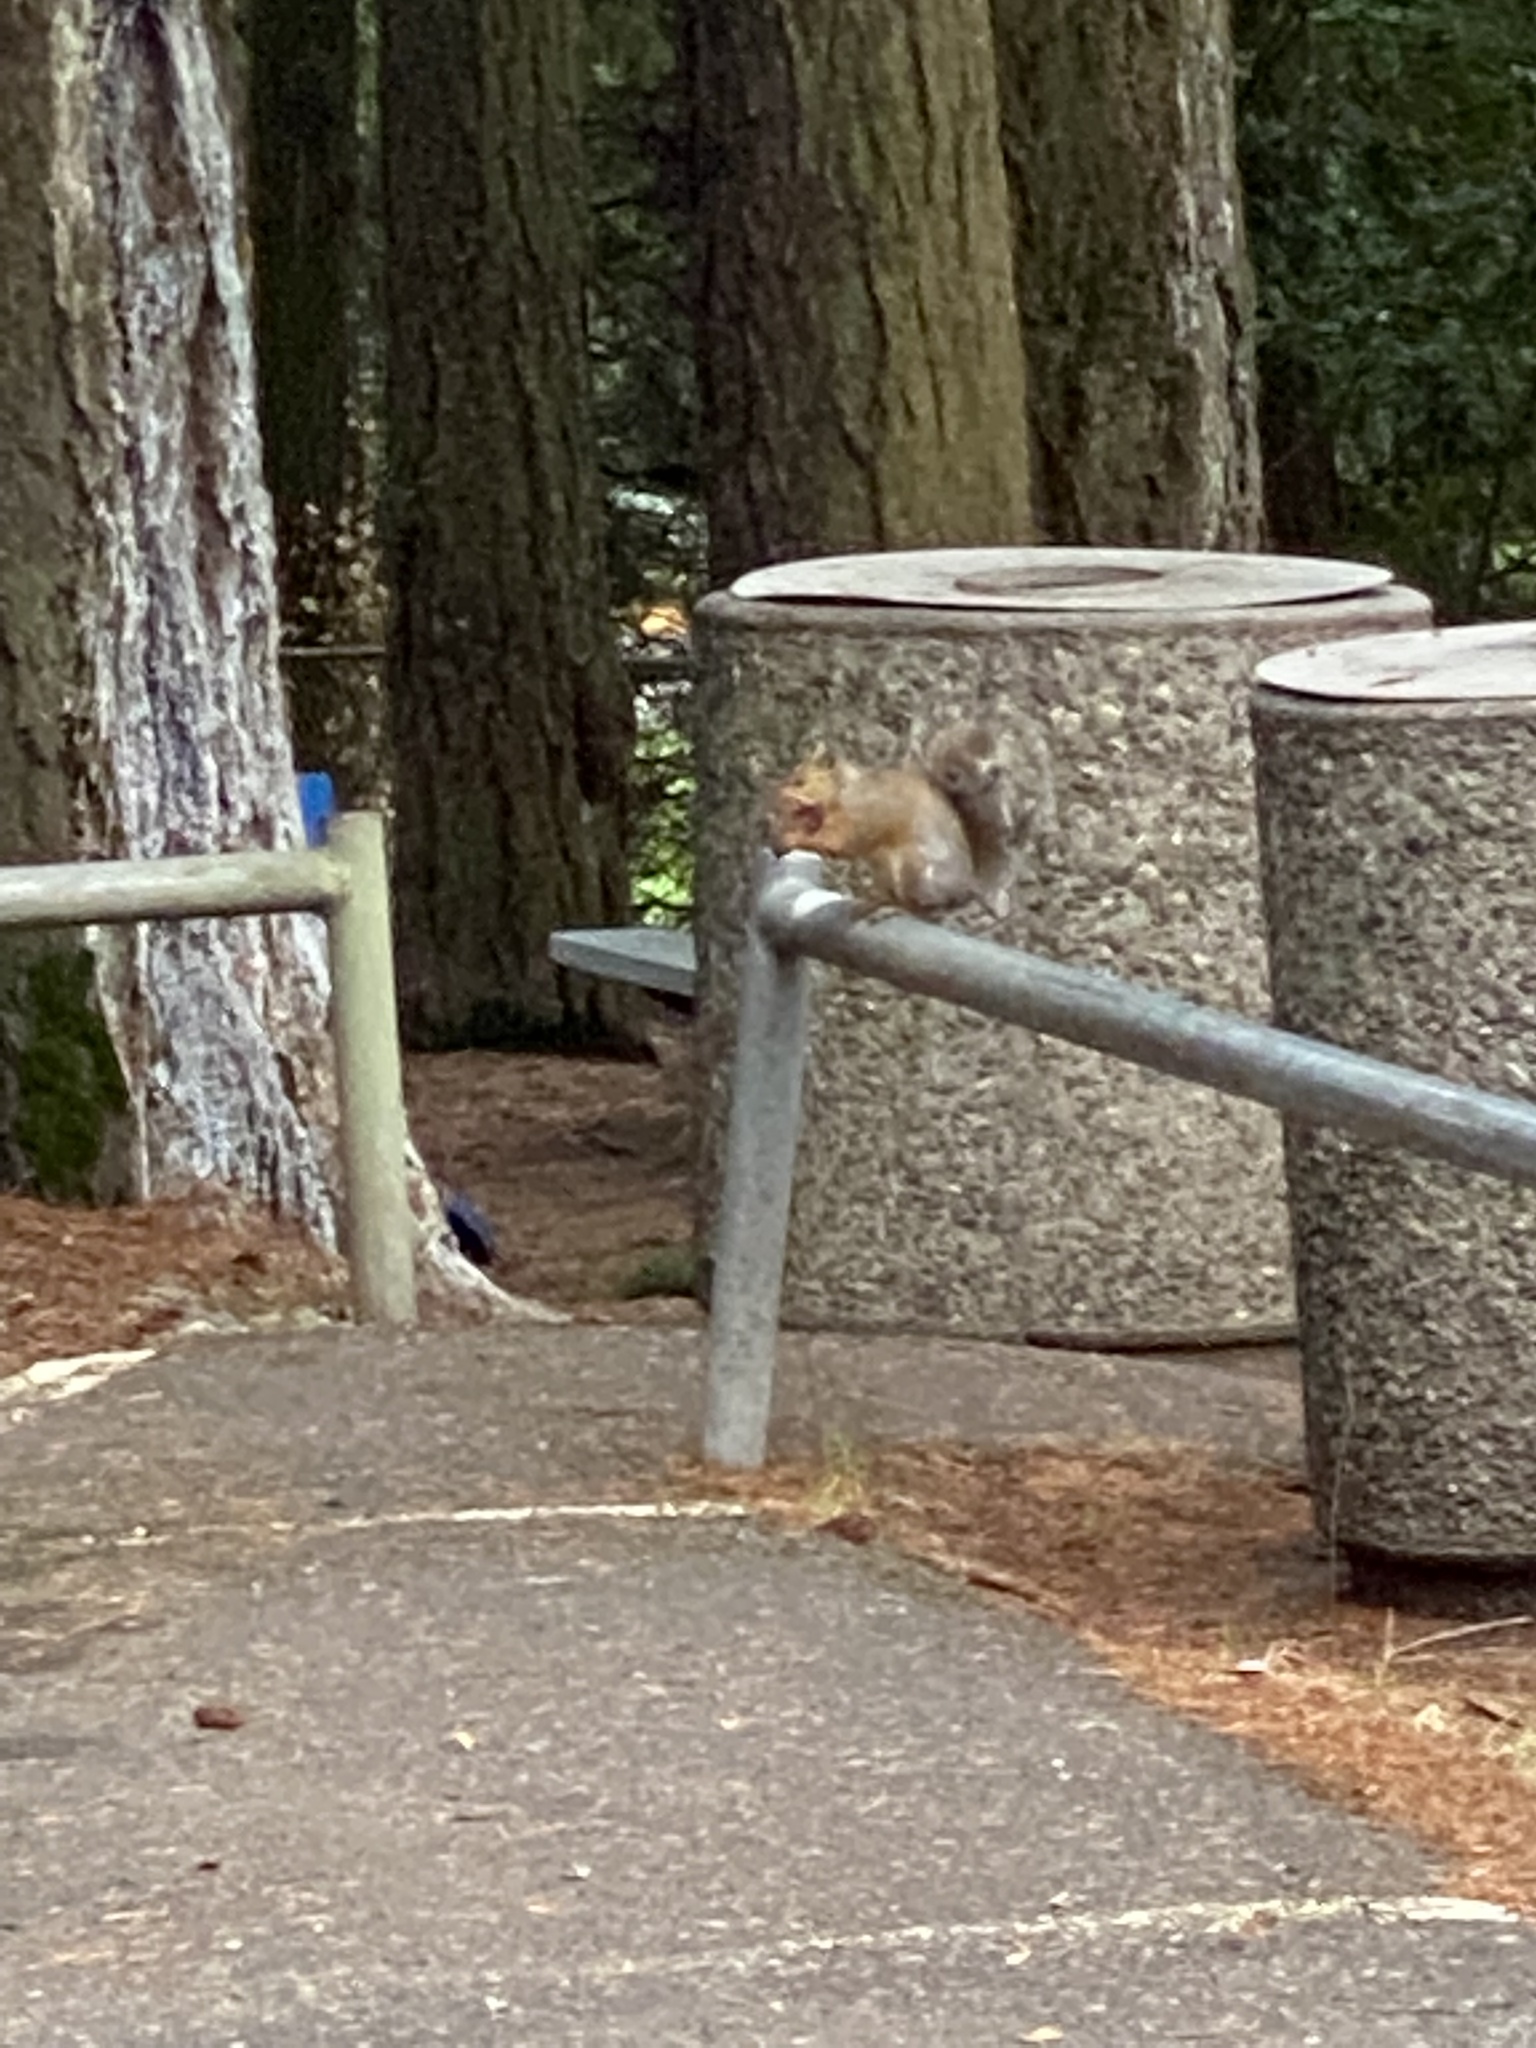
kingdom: Animalia
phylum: Chordata
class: Mammalia
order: Rodentia
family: Sciuridae
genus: Sciurus
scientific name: Sciurus carolinensis
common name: Eastern gray squirrel
